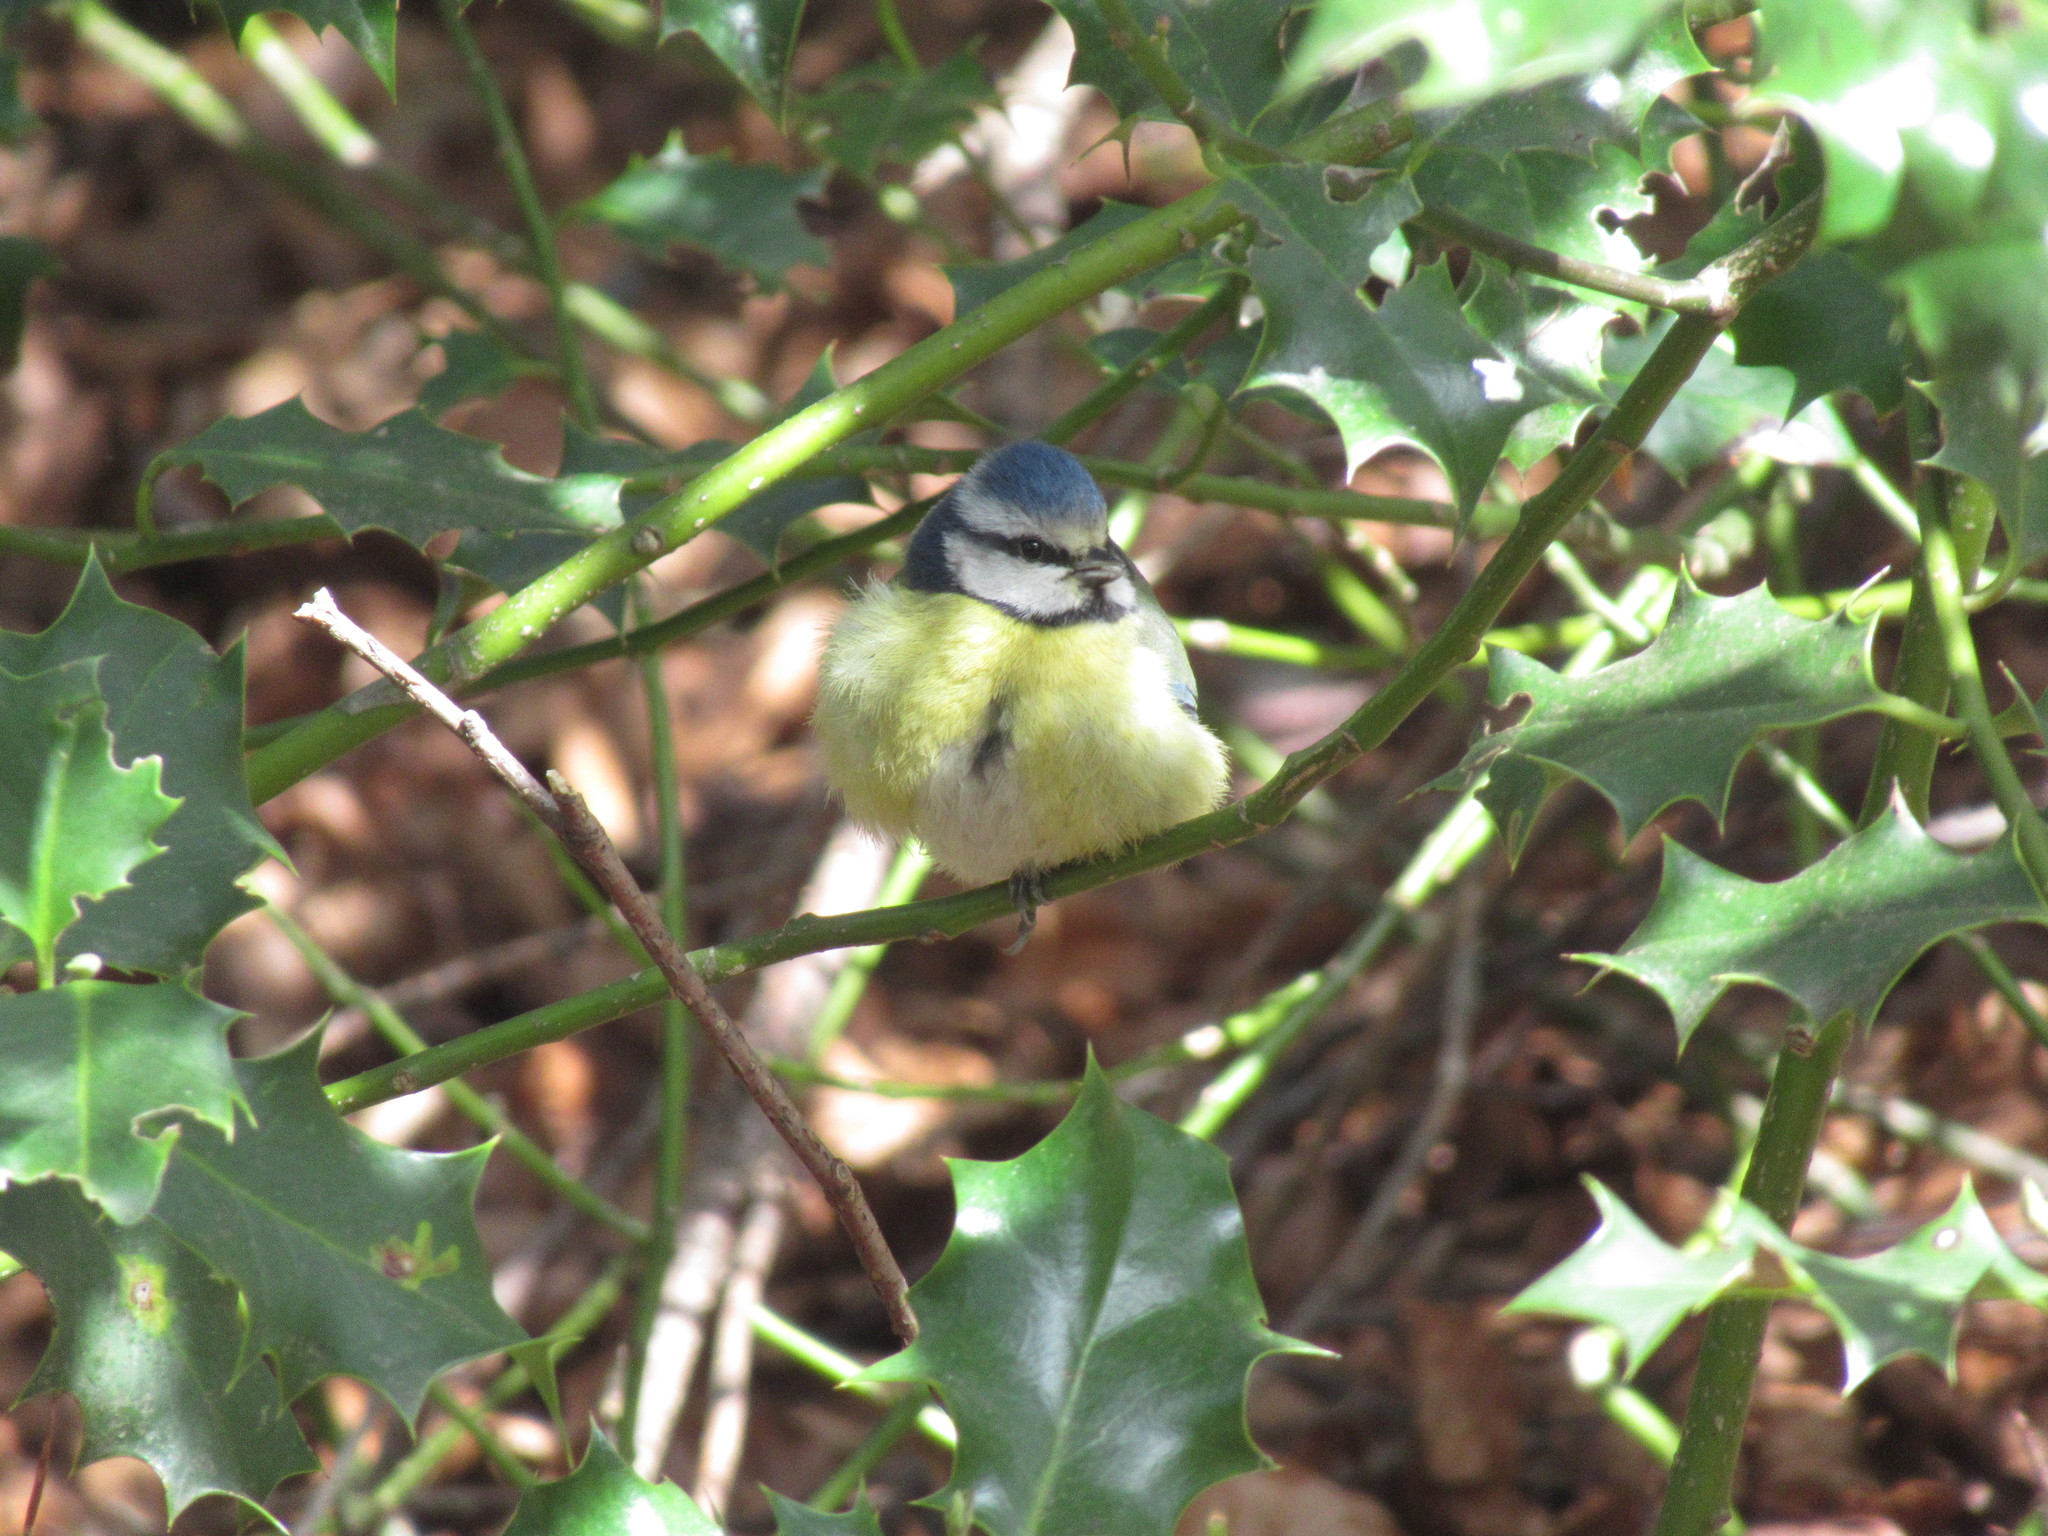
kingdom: Animalia
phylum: Chordata
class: Aves
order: Passeriformes
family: Paridae
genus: Cyanistes
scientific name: Cyanistes caeruleus
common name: Eurasian blue tit
